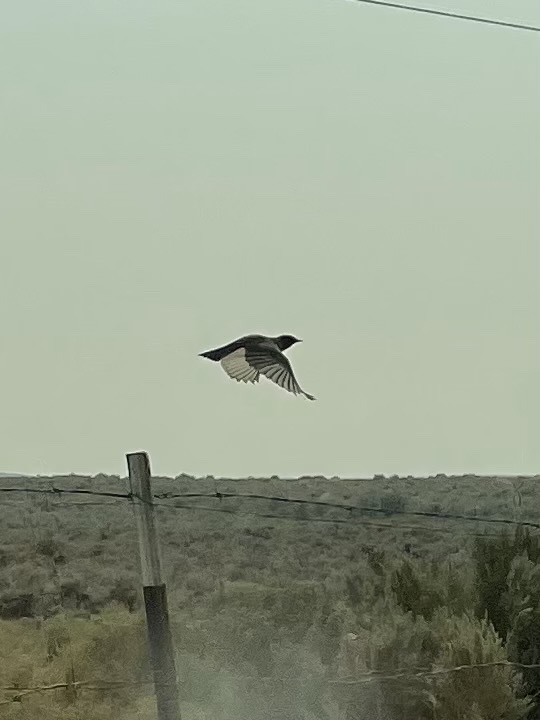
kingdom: Animalia
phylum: Chordata
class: Aves
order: Passeriformes
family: Tyrannidae
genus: Sayornis
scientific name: Sayornis saya
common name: Say's phoebe
